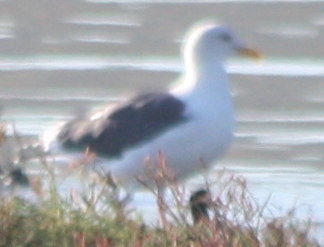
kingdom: Animalia
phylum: Chordata
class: Aves
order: Charadriiformes
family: Laridae
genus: Larus
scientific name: Larus occidentalis
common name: Western gull
